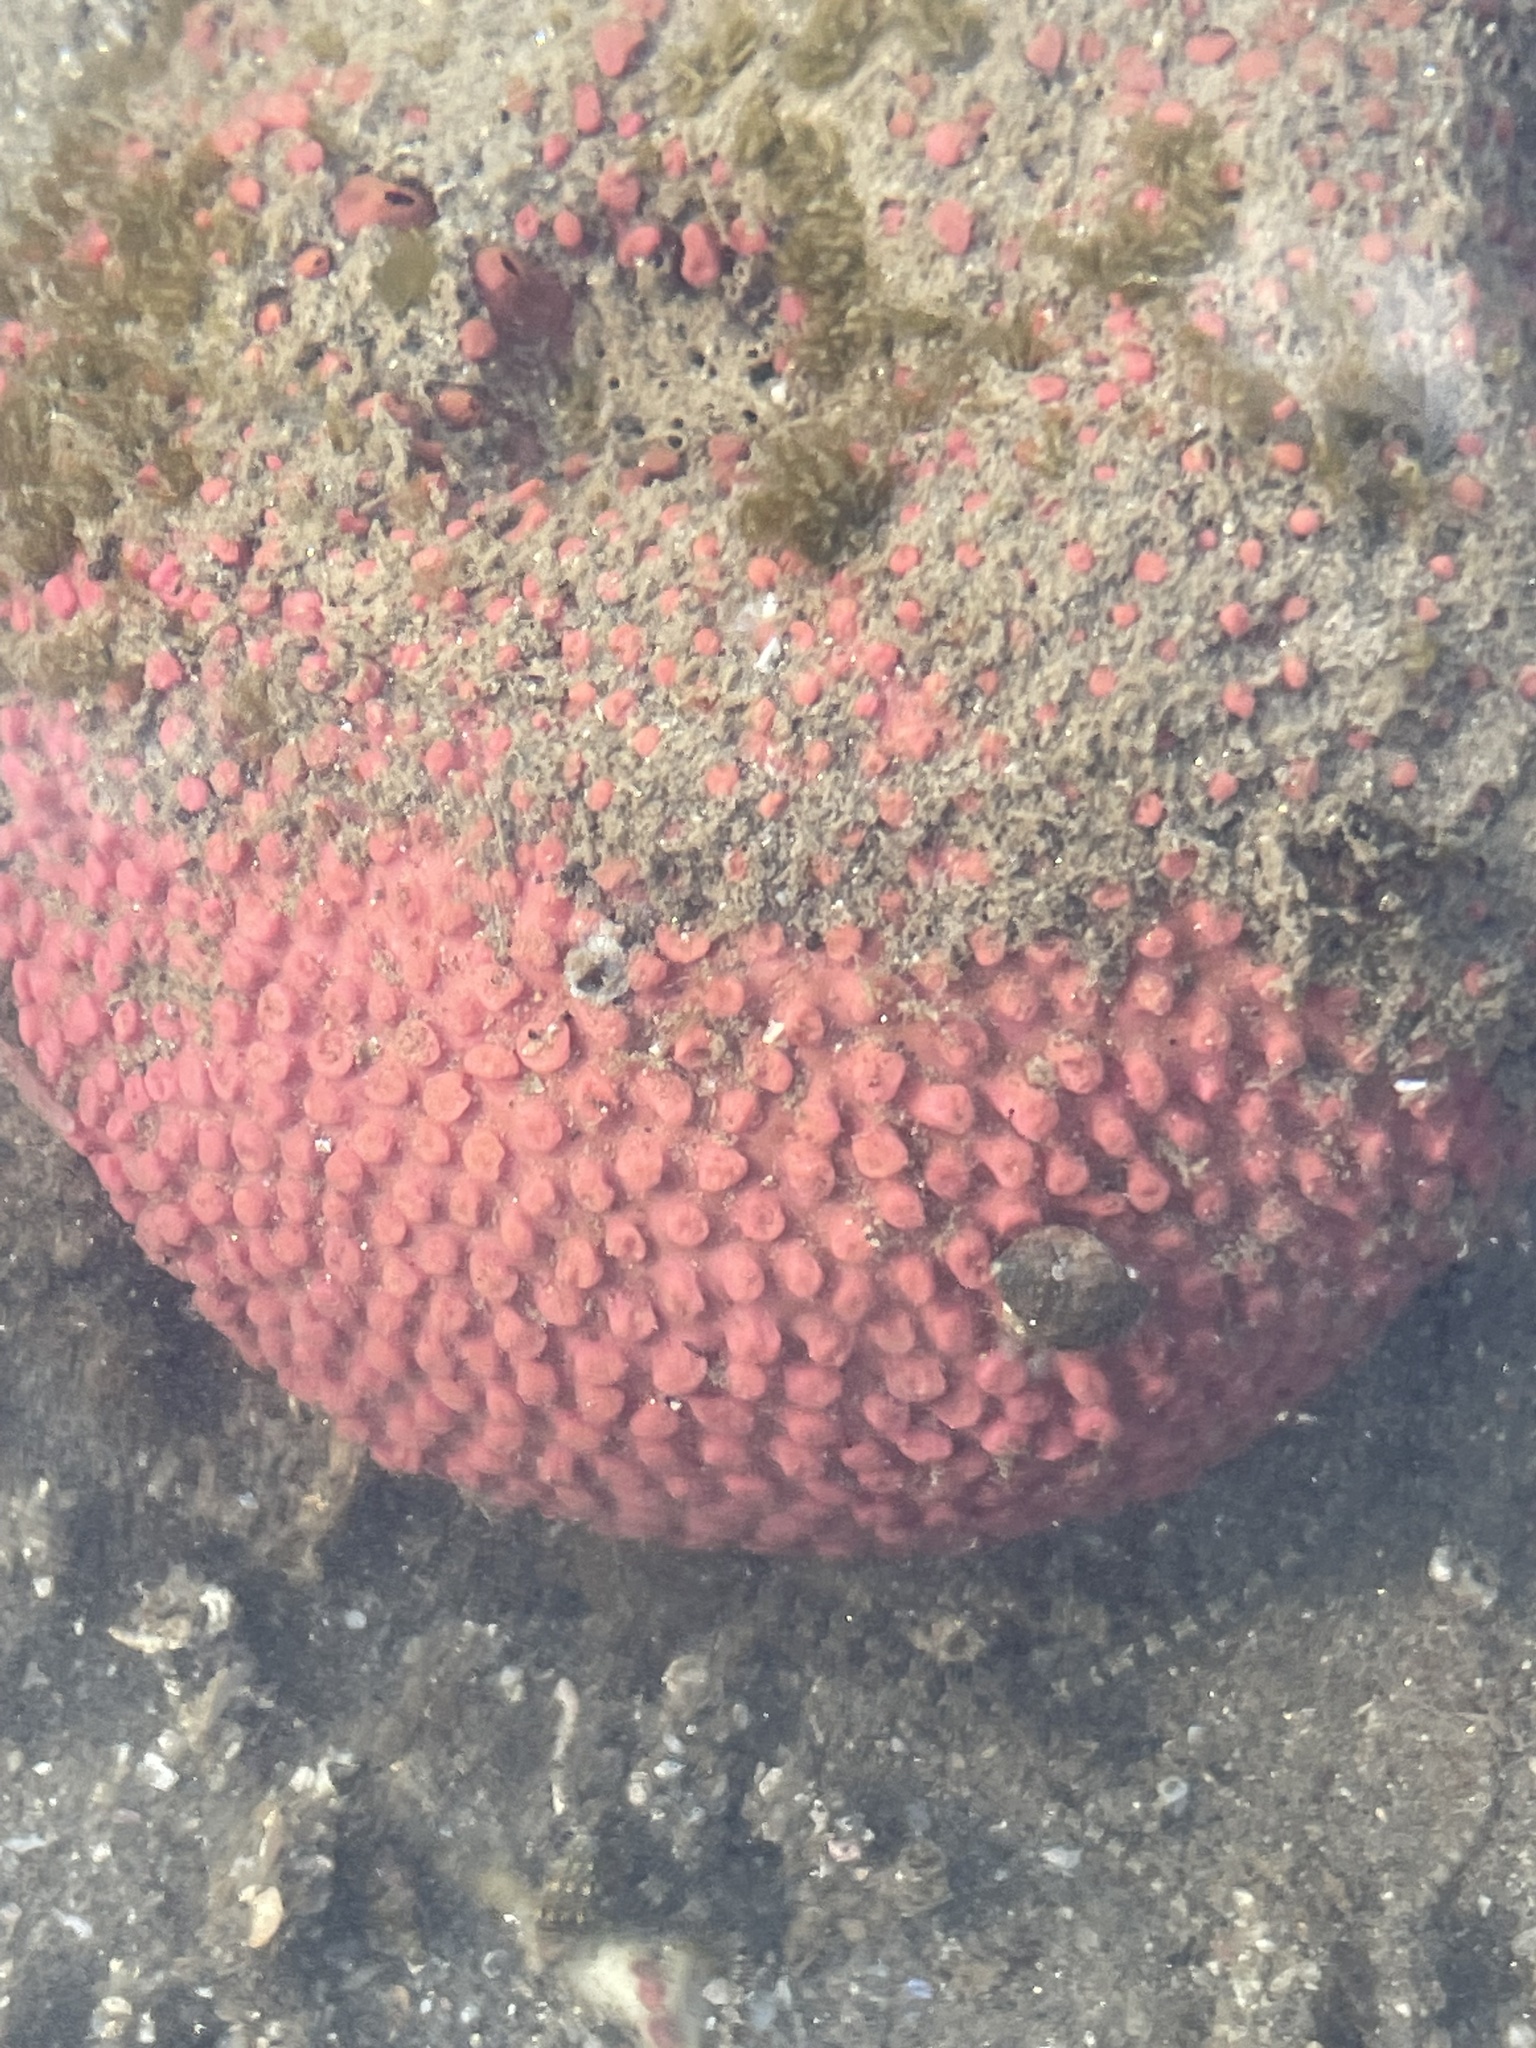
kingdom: Animalia
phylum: Porifera
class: Demospongiae
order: Clionaida
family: Clionaidae
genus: Cliona
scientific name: Cliona californiana
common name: California boring horny sponge
